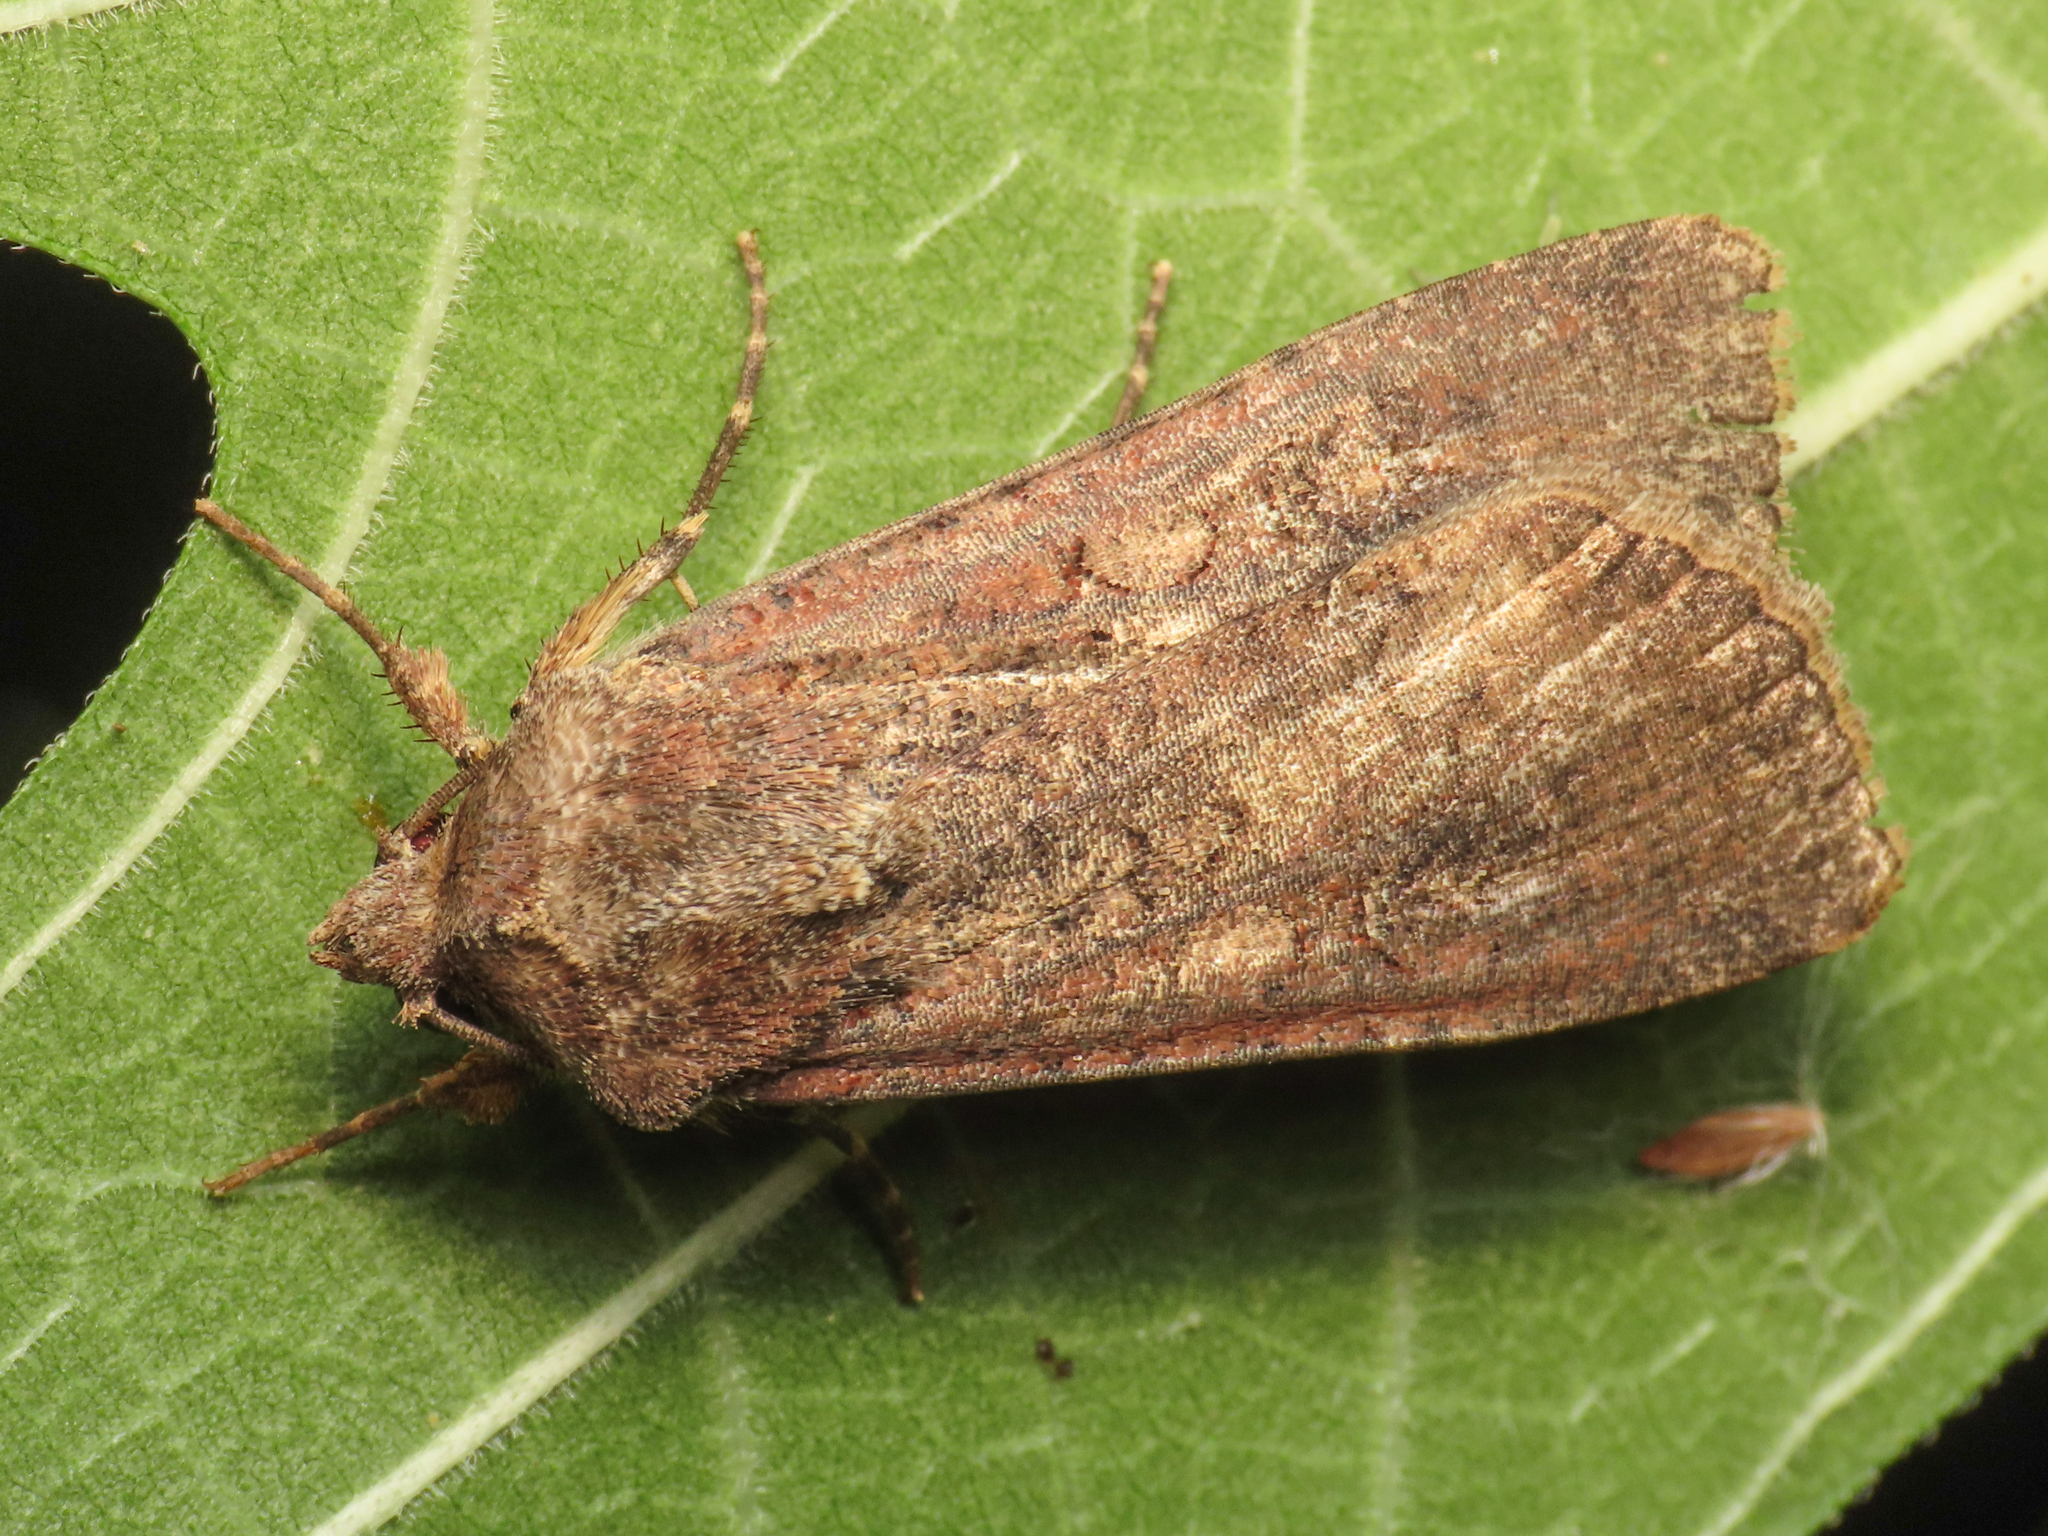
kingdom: Animalia
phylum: Arthropoda
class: Insecta
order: Lepidoptera
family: Noctuidae
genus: Peridroma
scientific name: Peridroma saucia
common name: Pearly underwing
